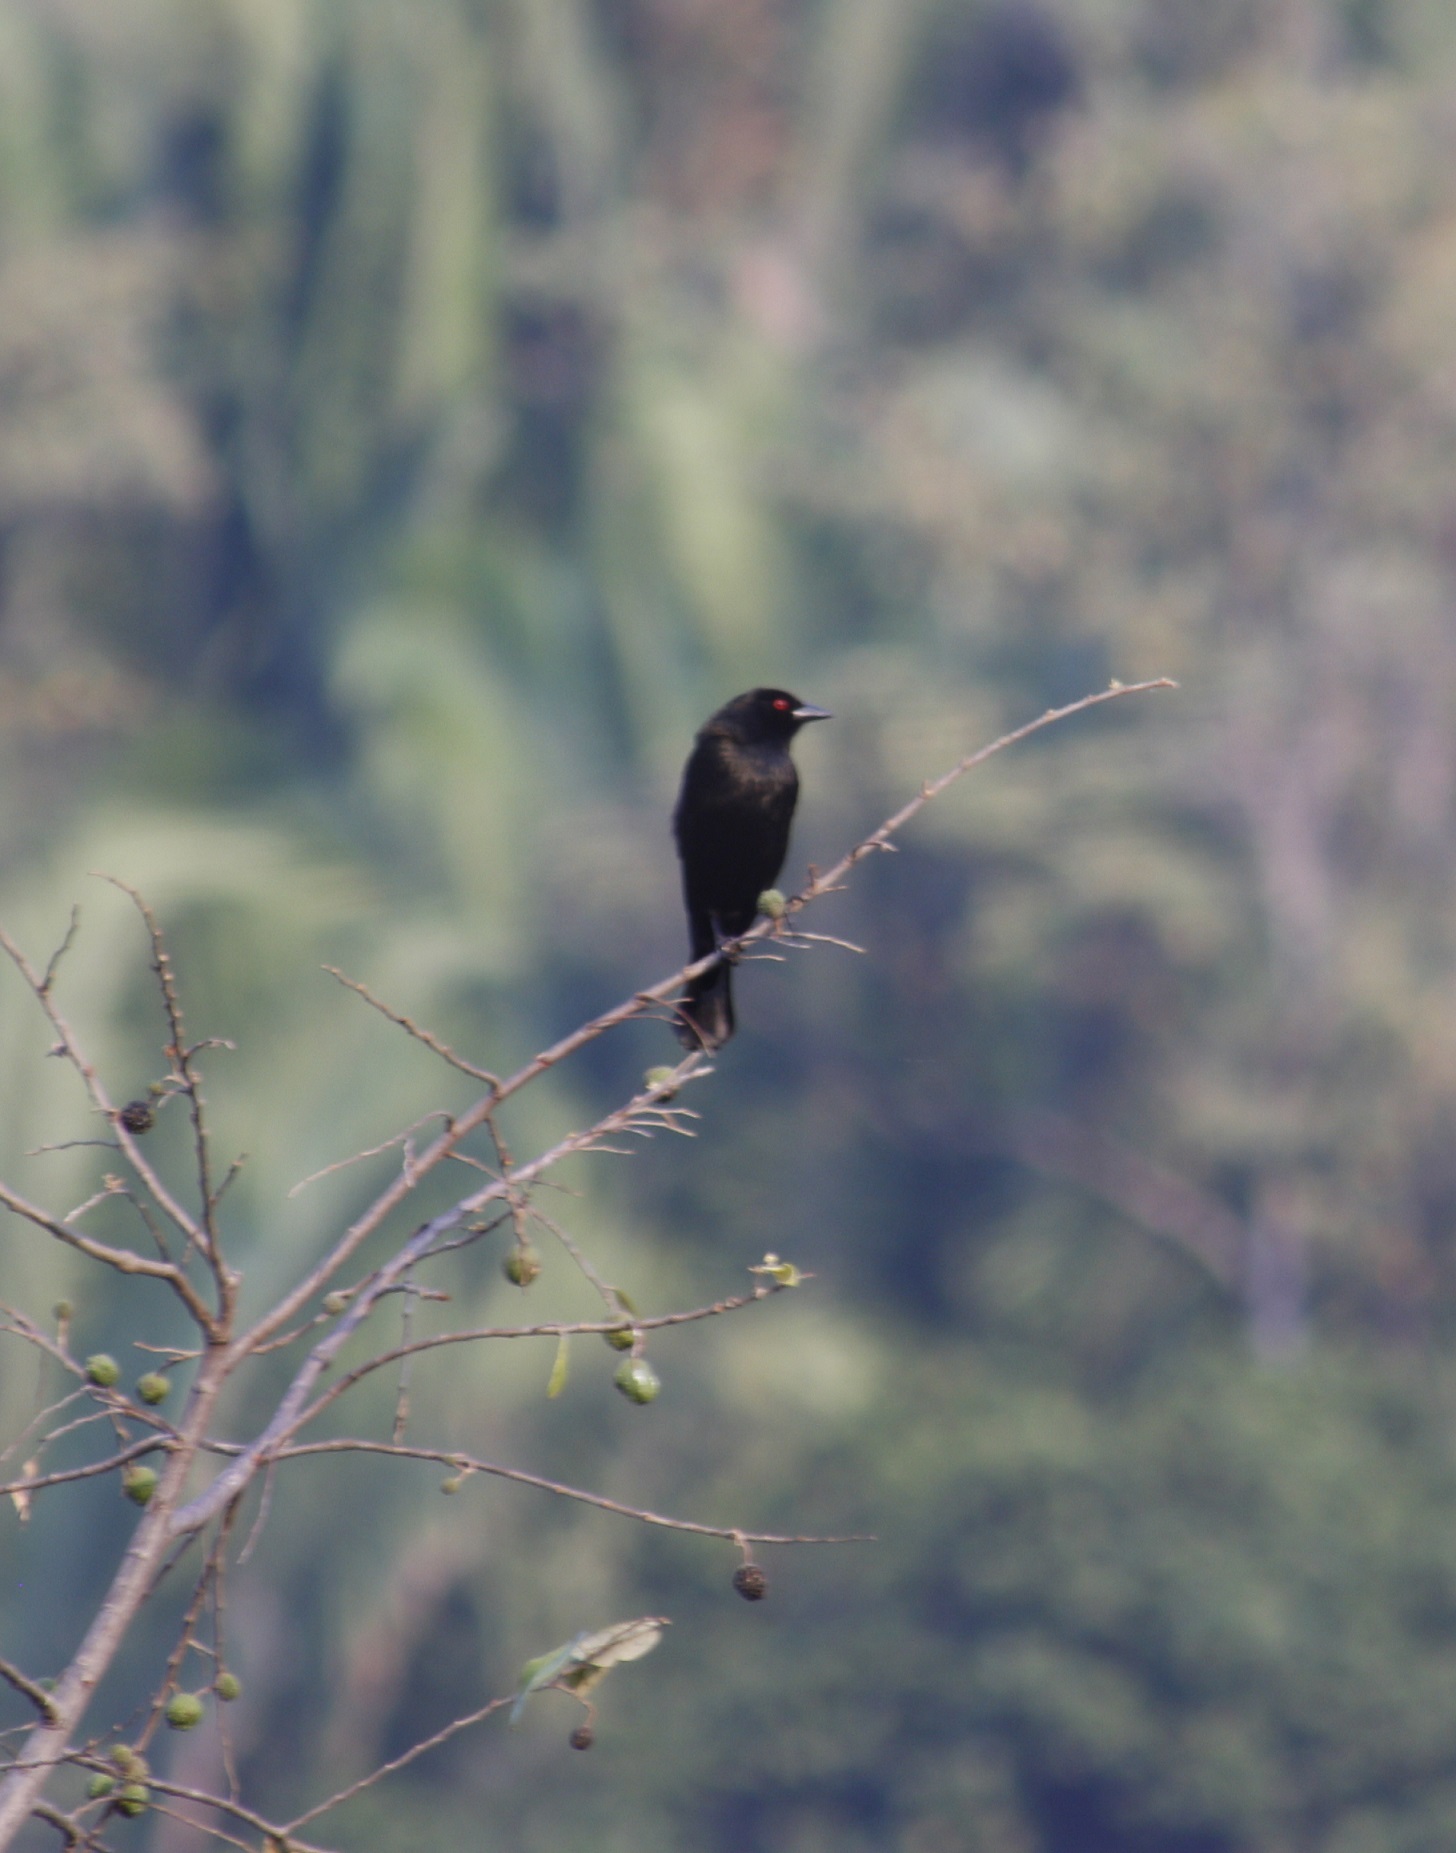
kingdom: Animalia
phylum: Chordata
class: Aves
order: Passeriformes
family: Icteridae
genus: Molothrus
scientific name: Molothrus aeneus
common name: Bronzed cowbird
